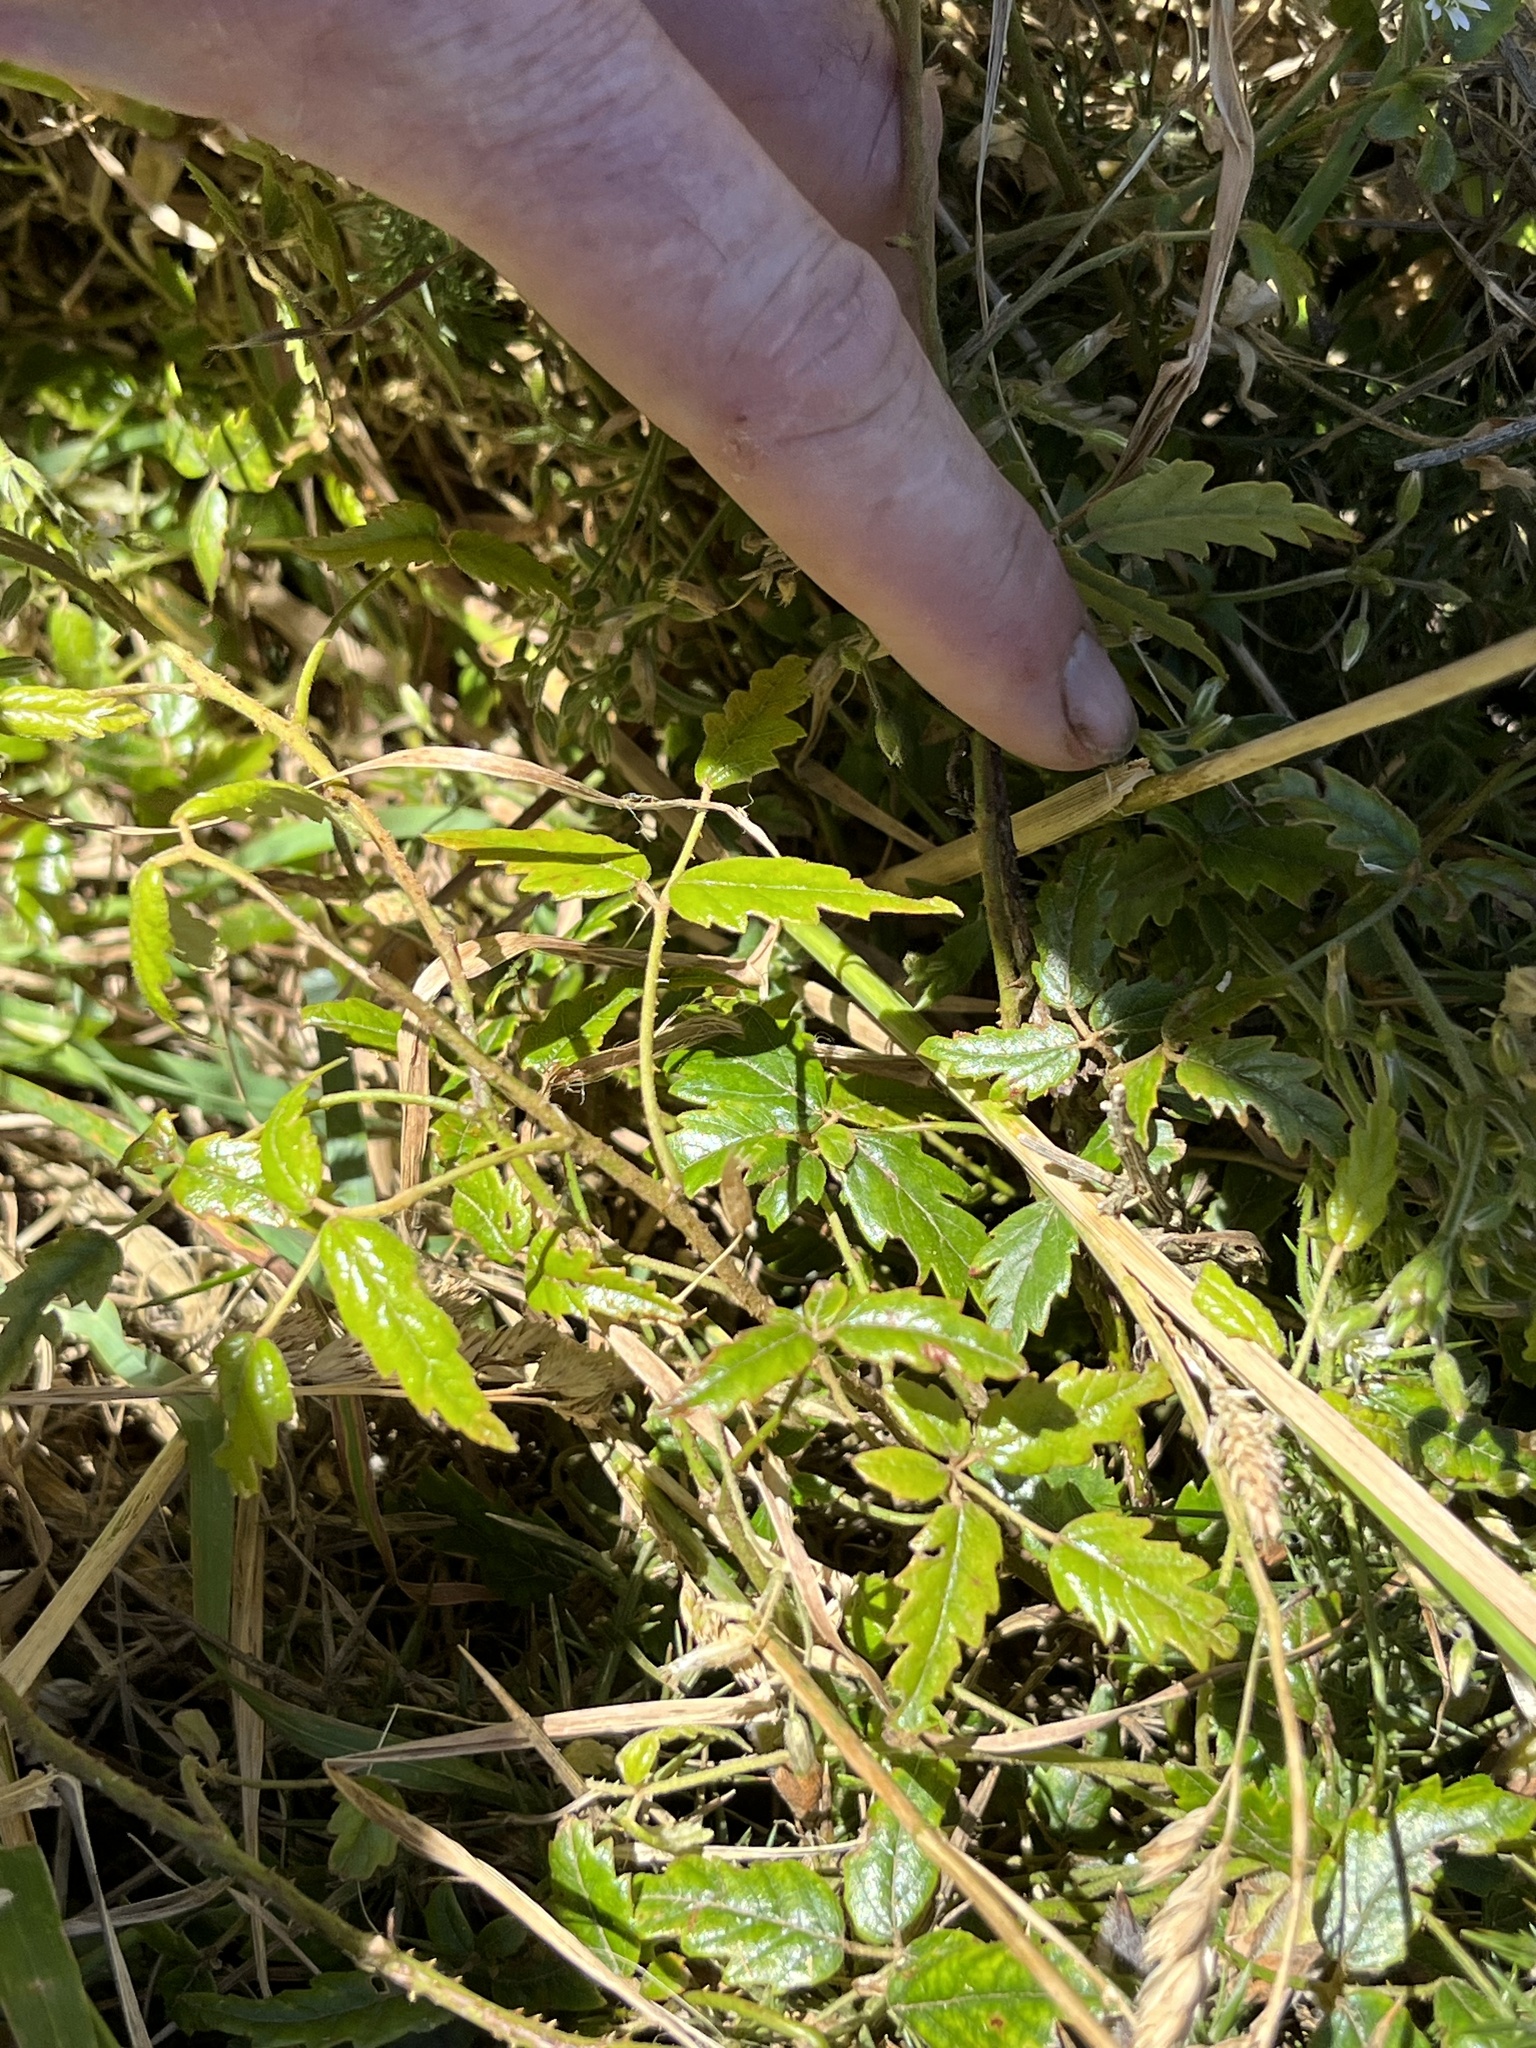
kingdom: Plantae
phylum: Tracheophyta
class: Magnoliopsida
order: Rosales
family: Rosaceae
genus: Rubus
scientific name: Rubus schmidelioides
